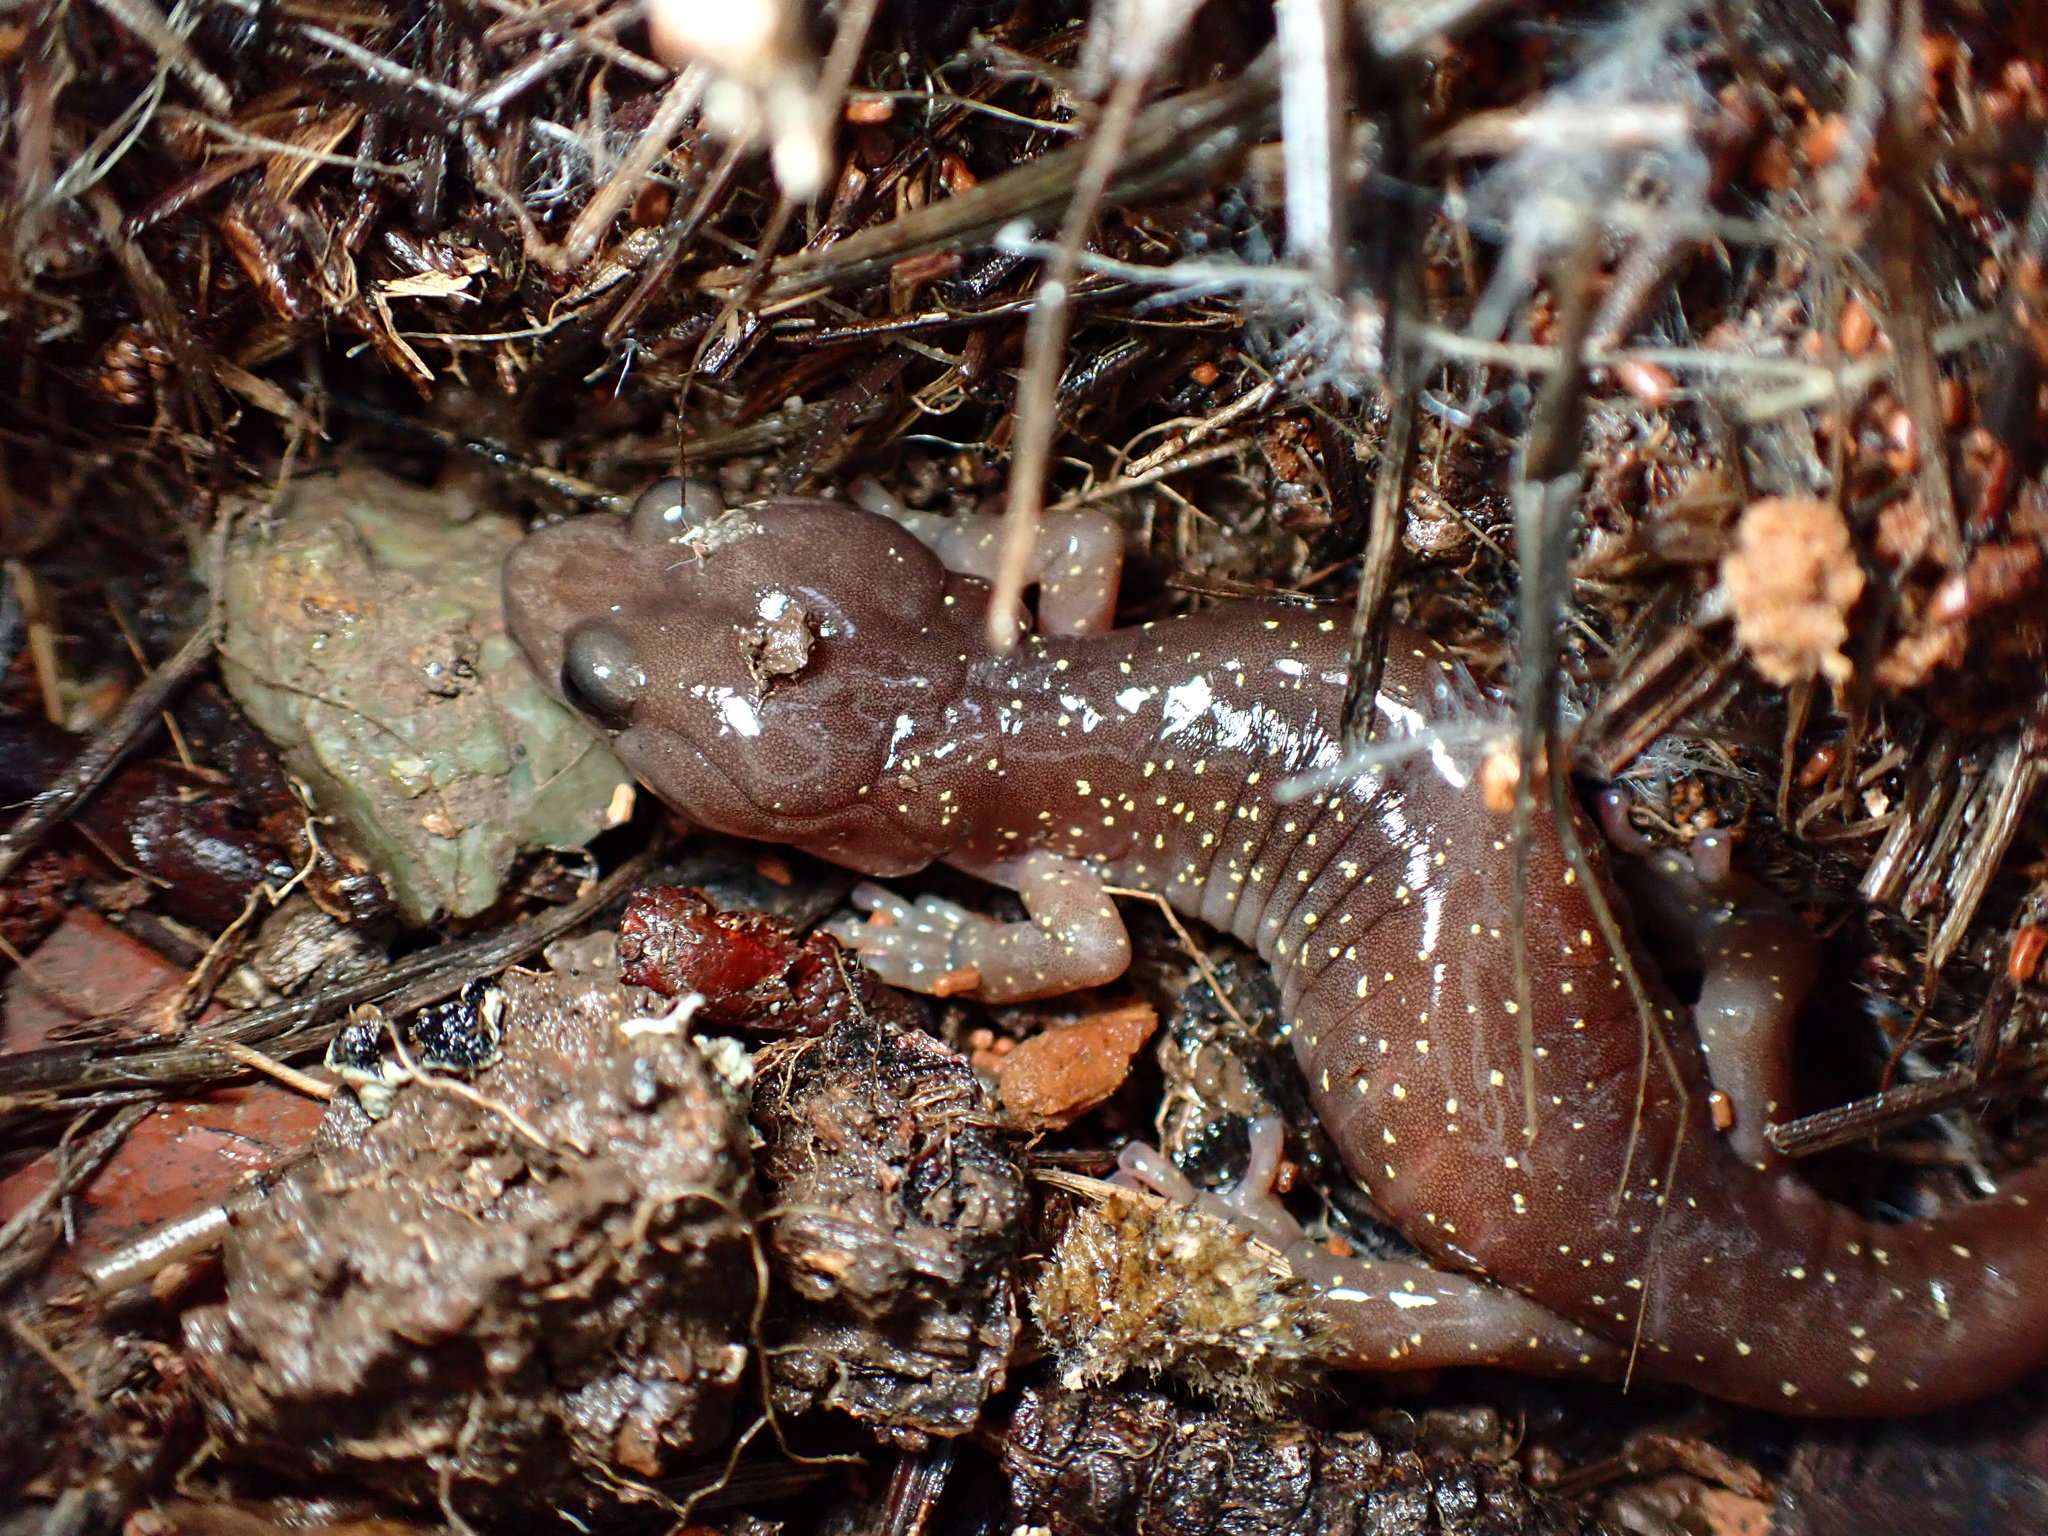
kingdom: Animalia
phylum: Chordata
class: Amphibia
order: Caudata
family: Plethodontidae
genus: Aneides
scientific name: Aneides lugubris
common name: Arboreal salamander
